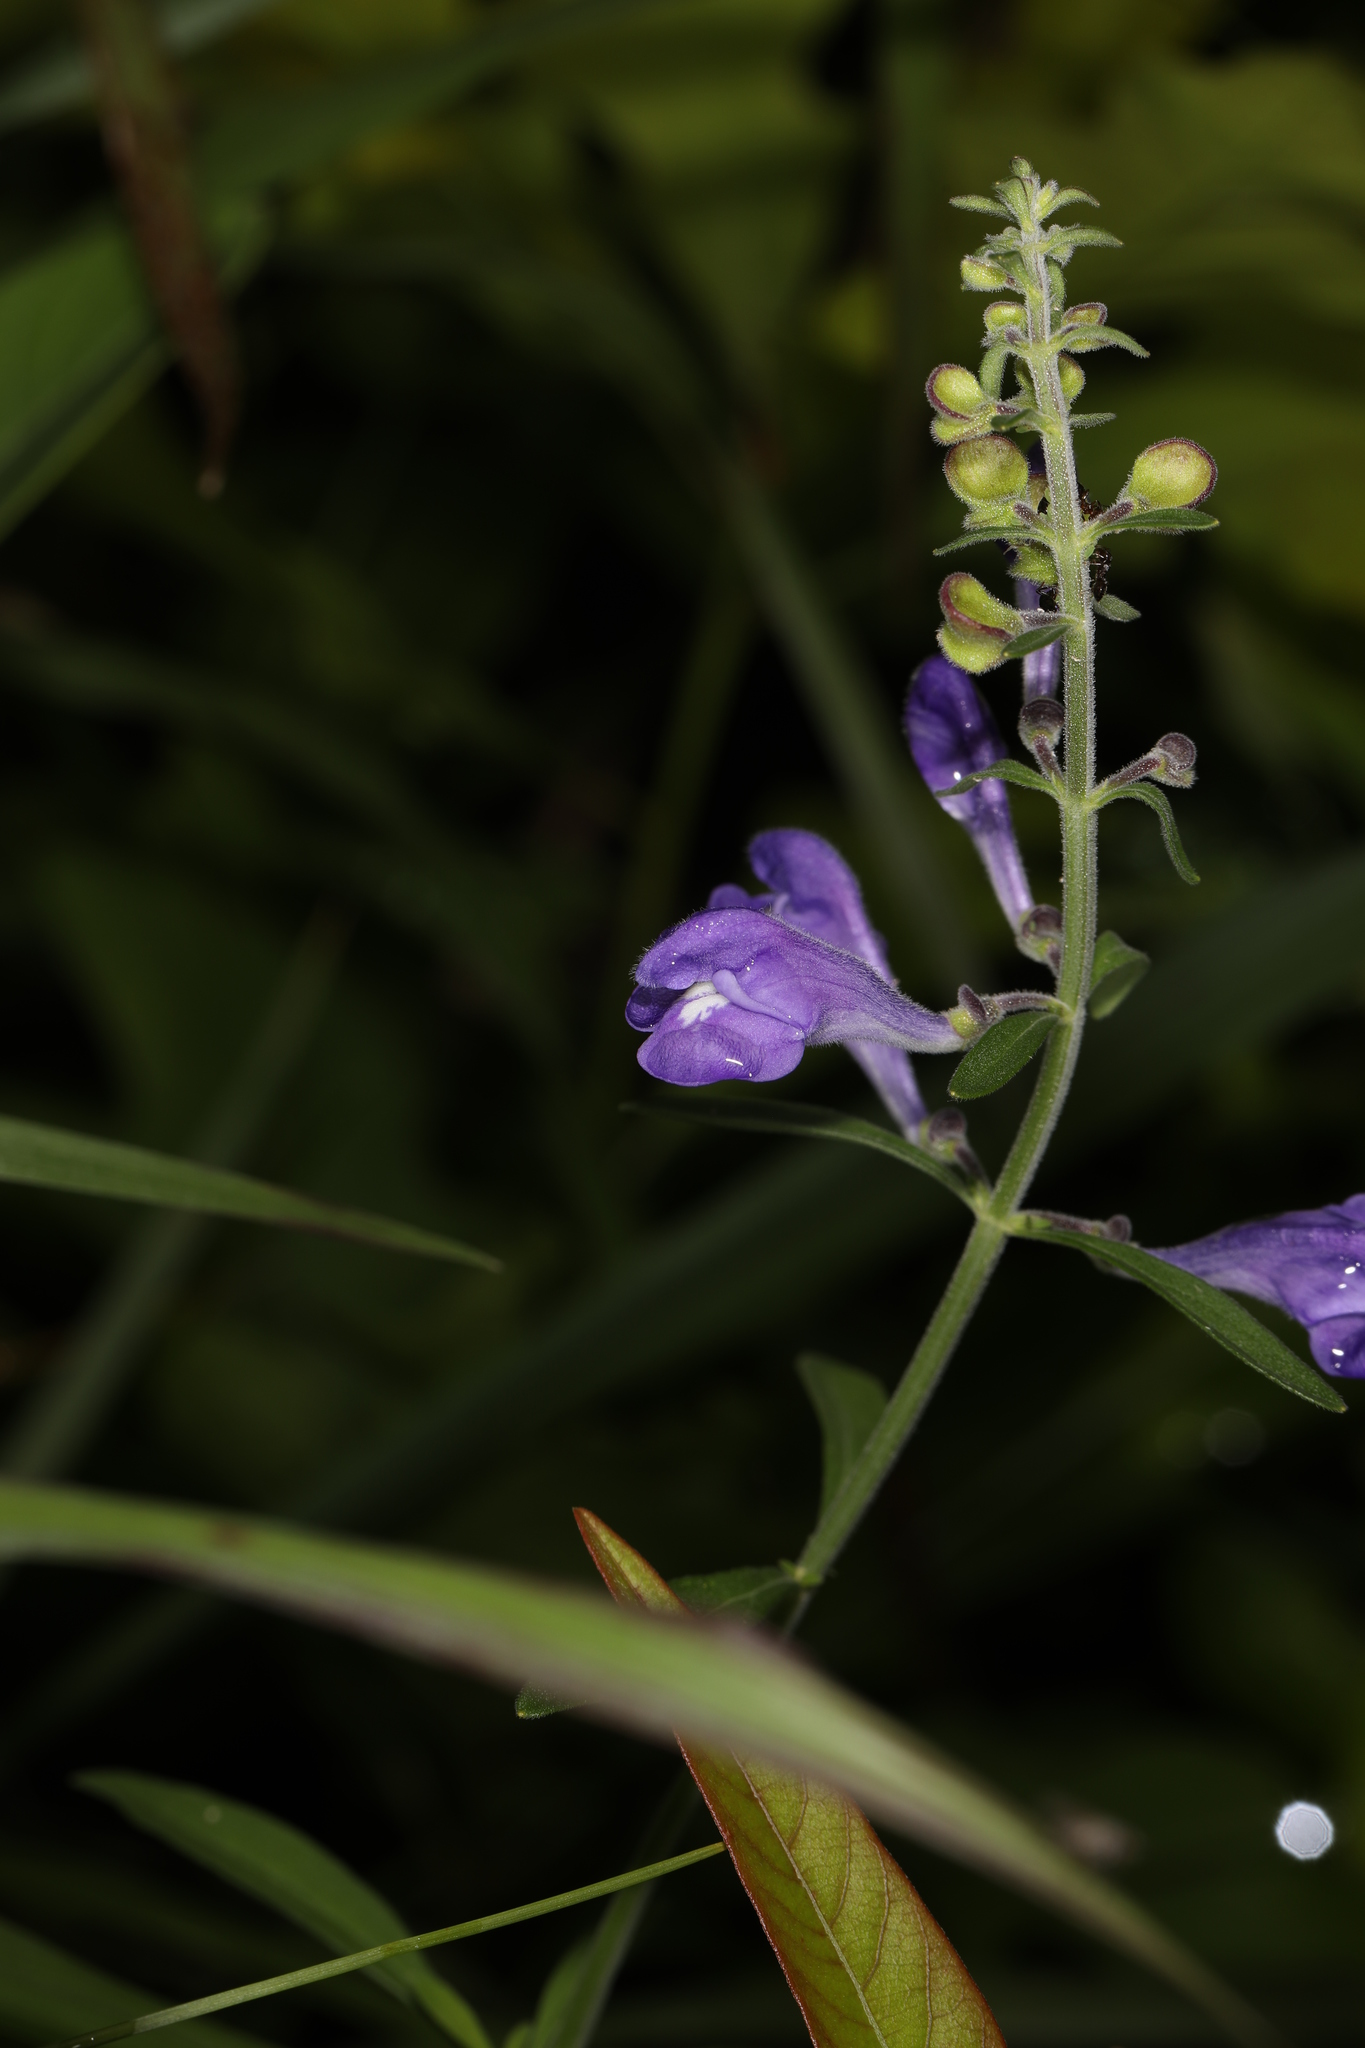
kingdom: Plantae
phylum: Tracheophyta
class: Magnoliopsida
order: Lamiales
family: Lamiaceae
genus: Scutellaria
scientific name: Scutellaria integrifolia
